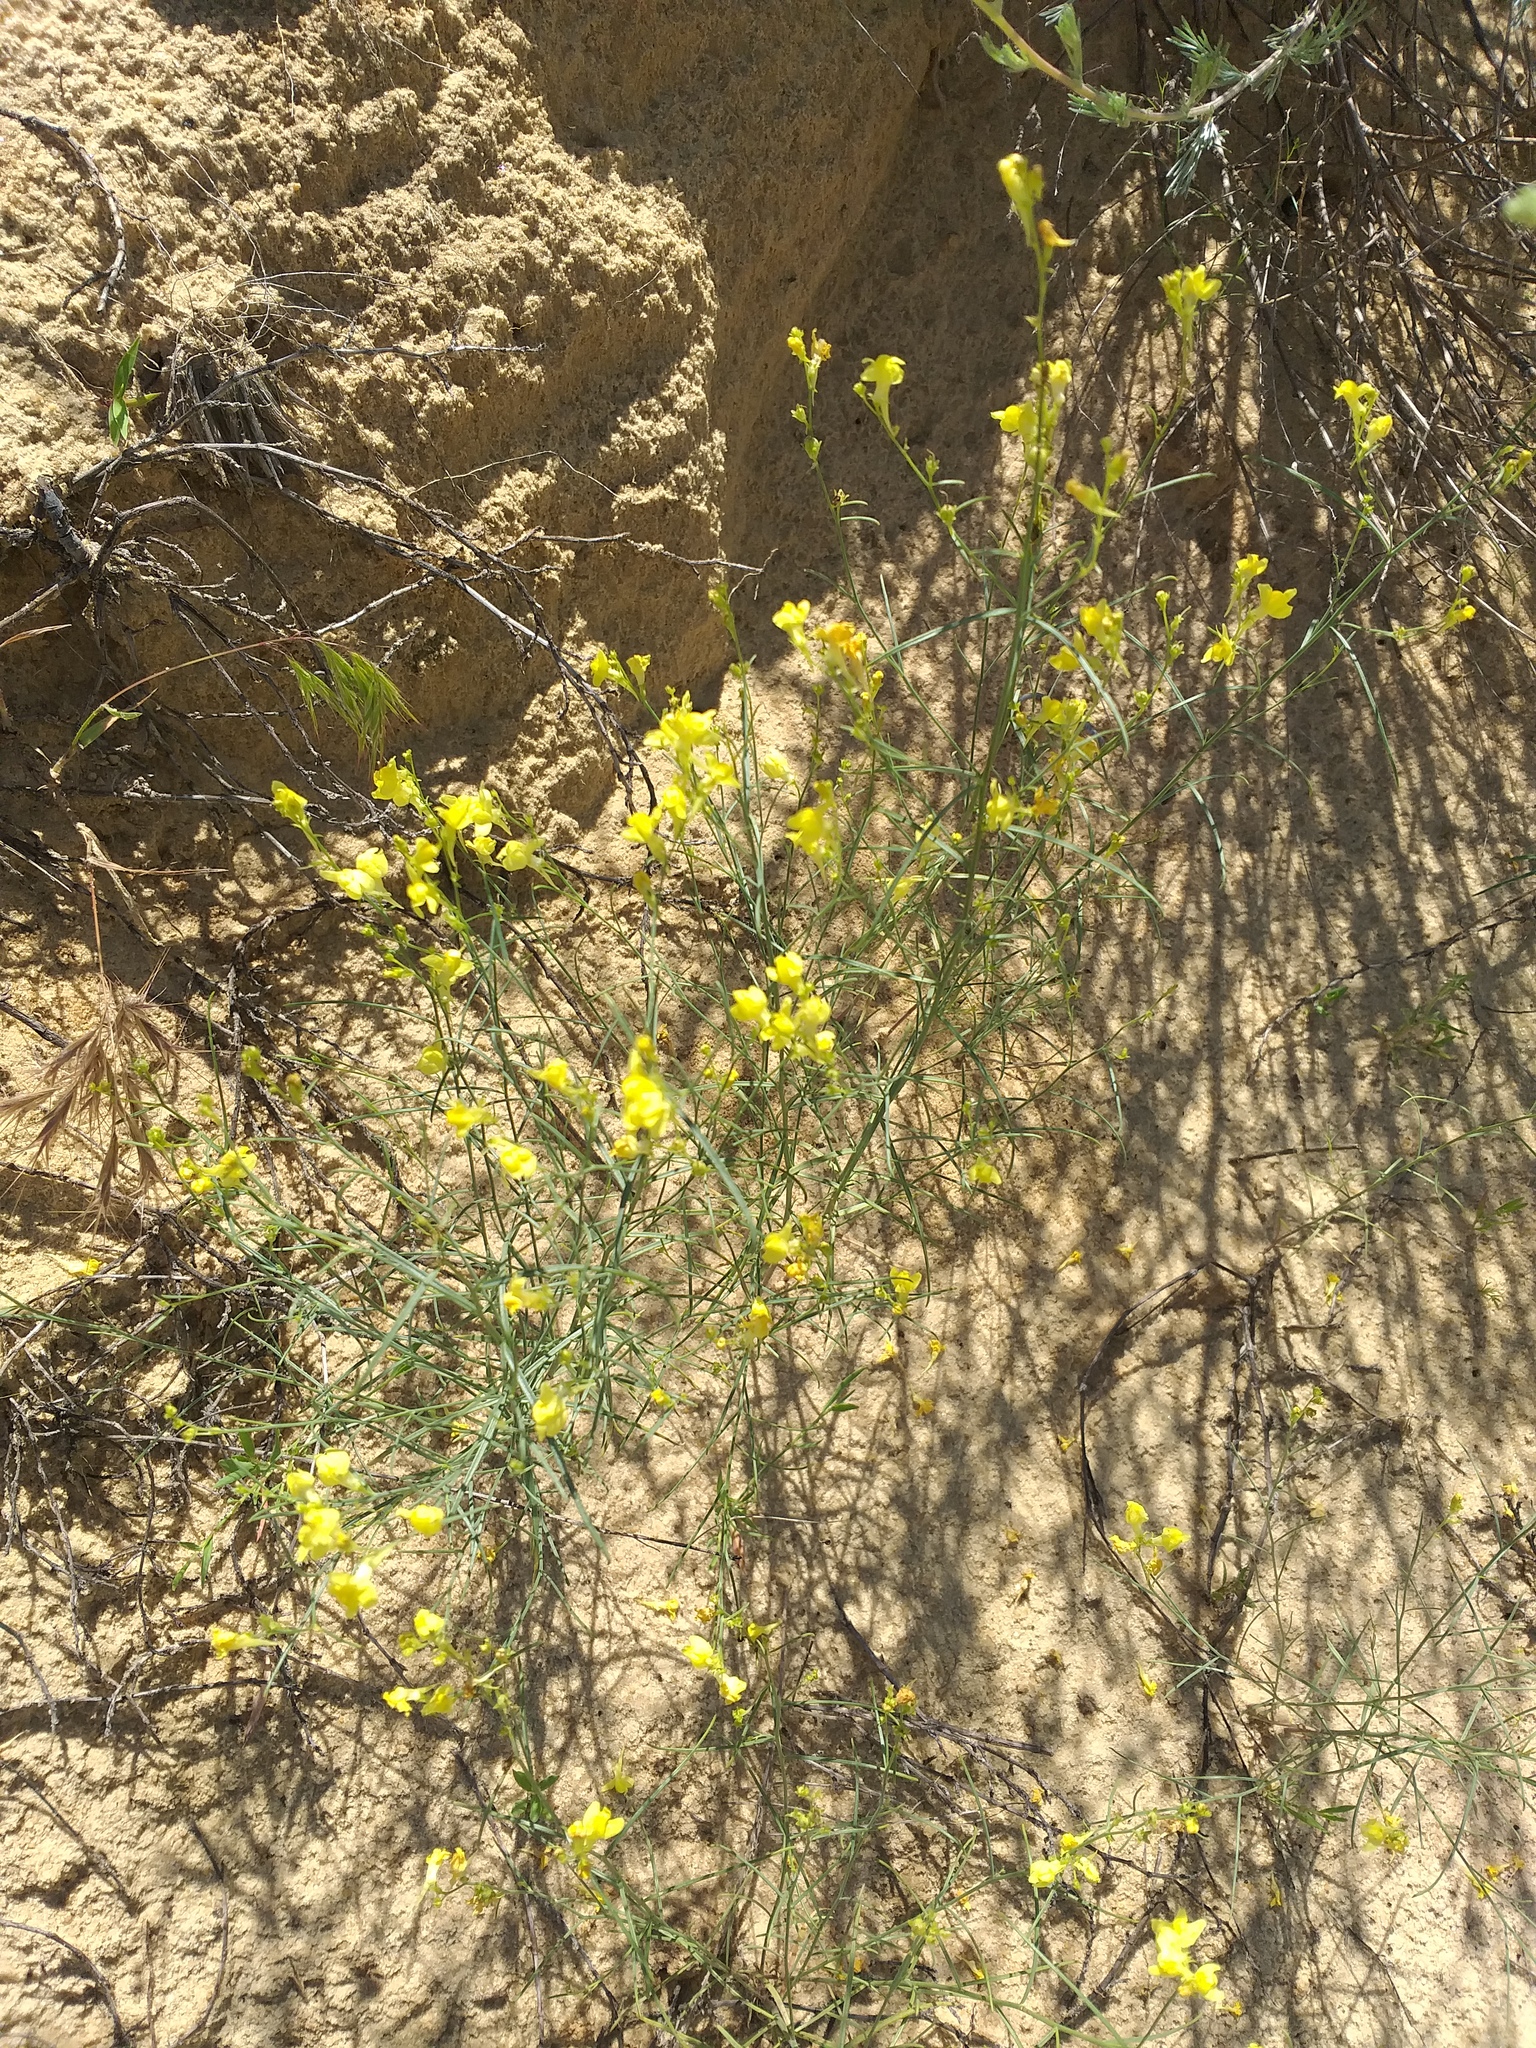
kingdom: Plantae
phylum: Tracheophyta
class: Magnoliopsida
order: Lamiales
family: Plantaginaceae
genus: Linaria
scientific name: Linaria odora
